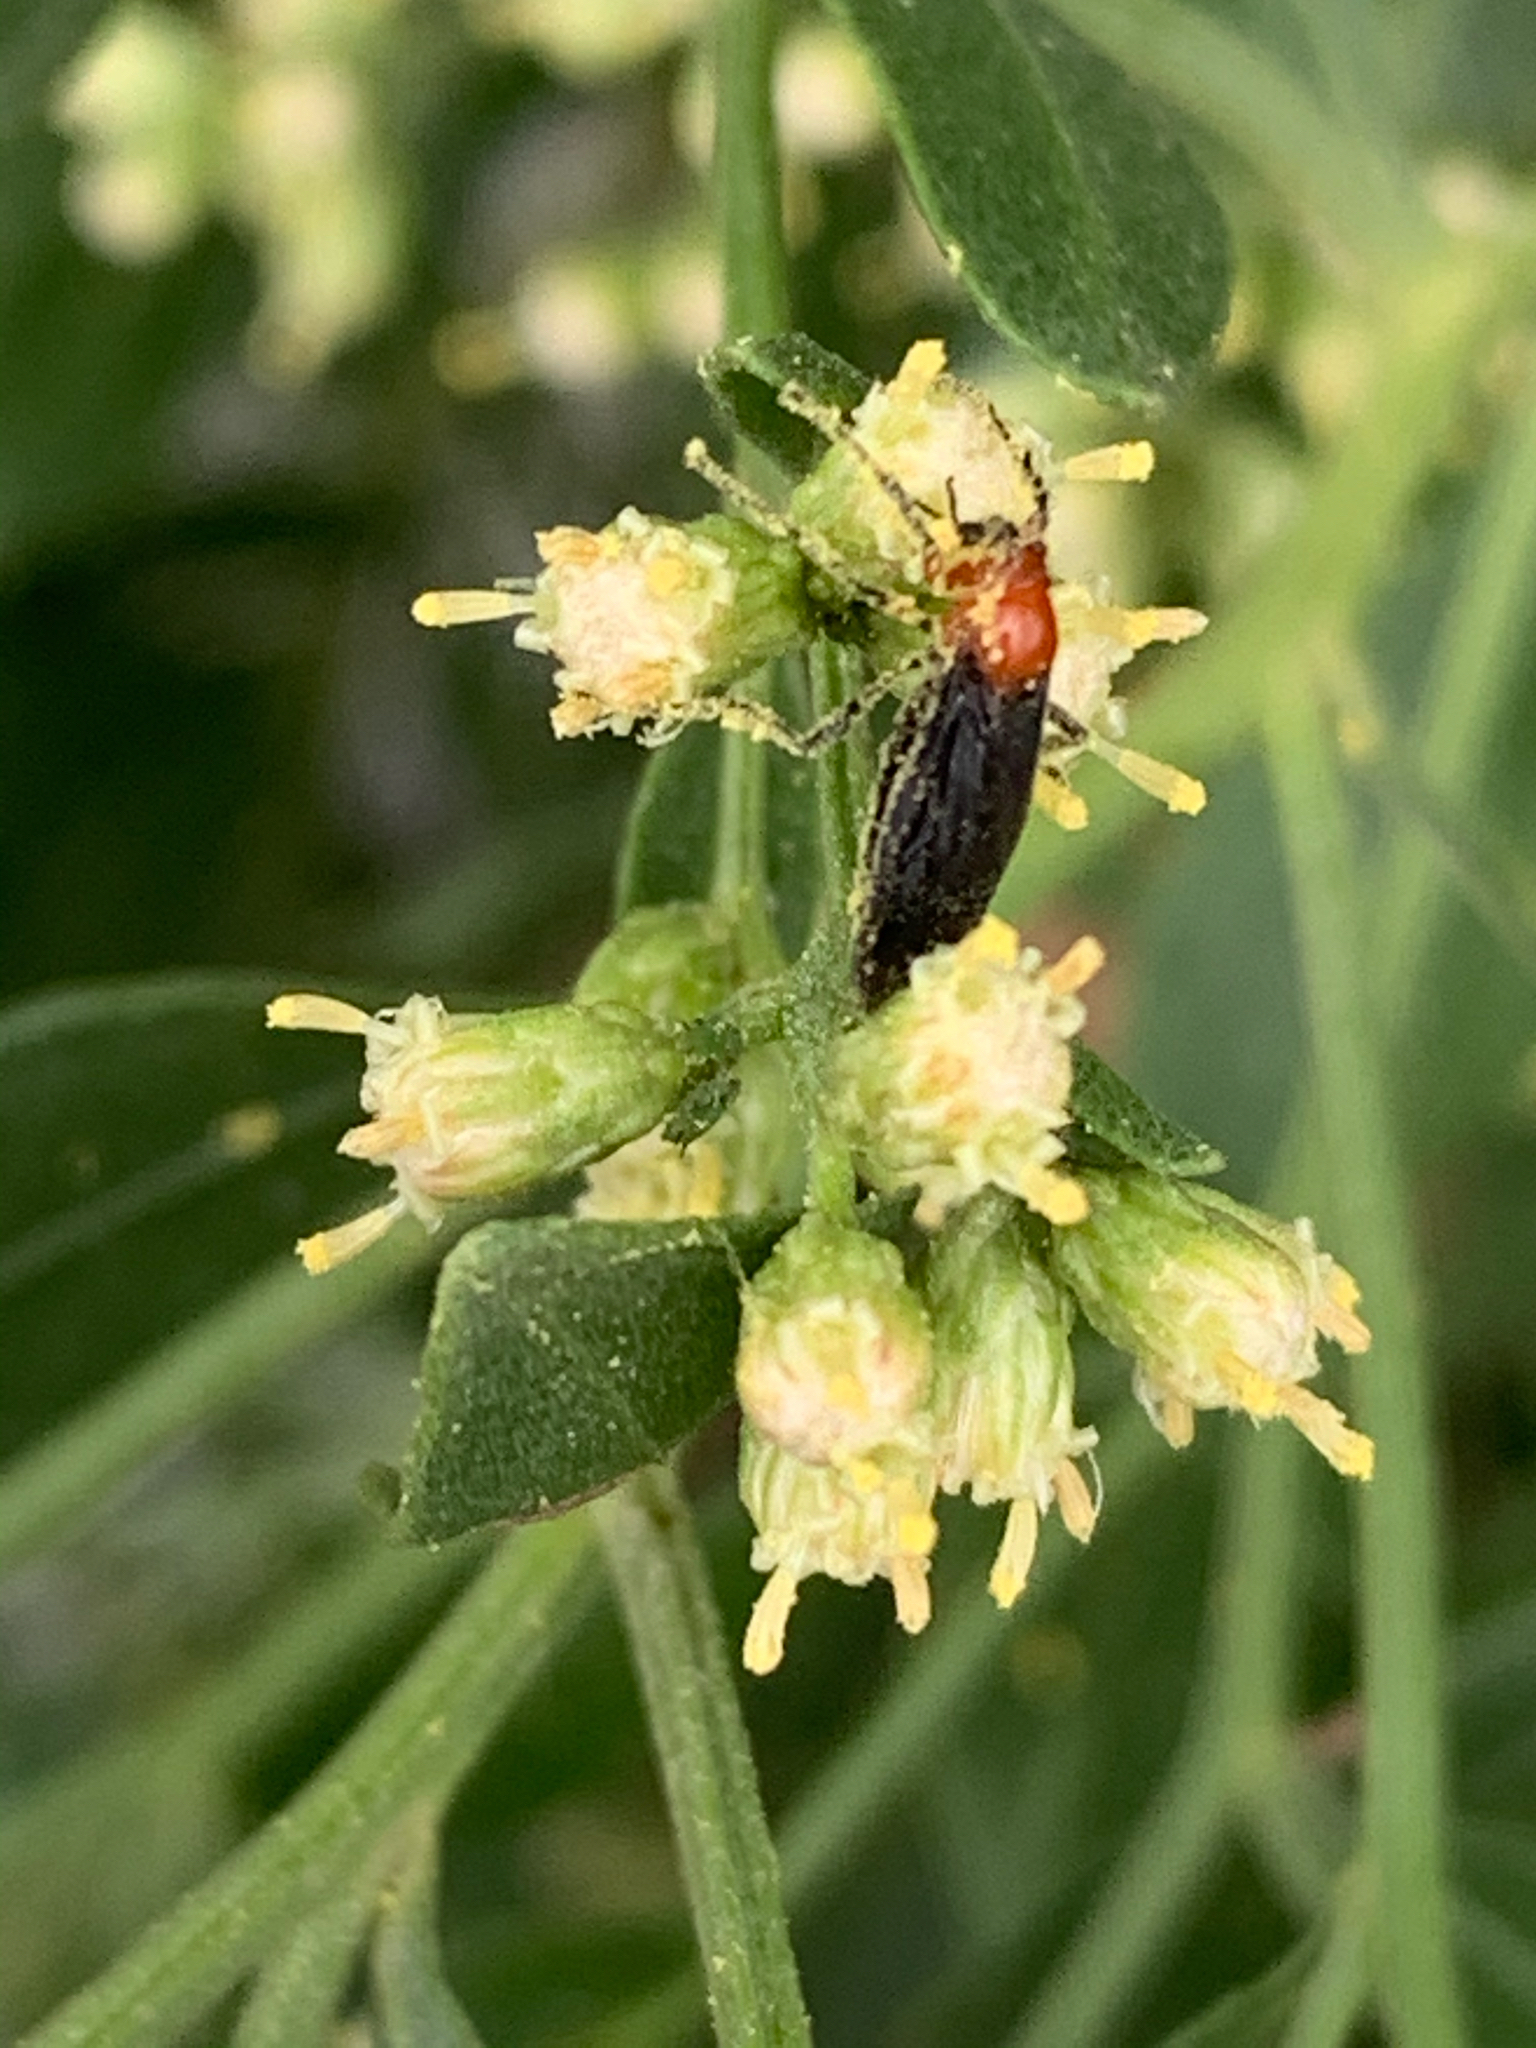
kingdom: Animalia
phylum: Arthropoda
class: Insecta
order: Diptera
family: Bibionidae
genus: Dilophus
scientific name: Dilophus spinipes
